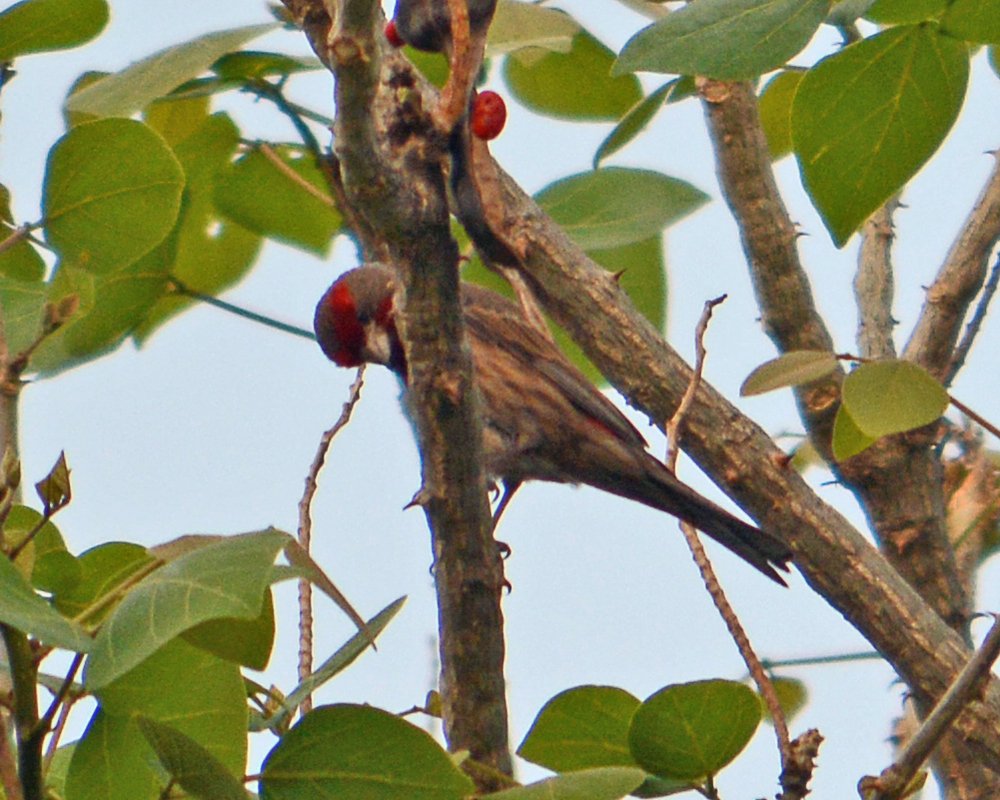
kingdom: Animalia
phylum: Chordata
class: Aves
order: Passeriformes
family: Fringillidae
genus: Haemorhous
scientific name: Haemorhous mexicanus
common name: House finch
